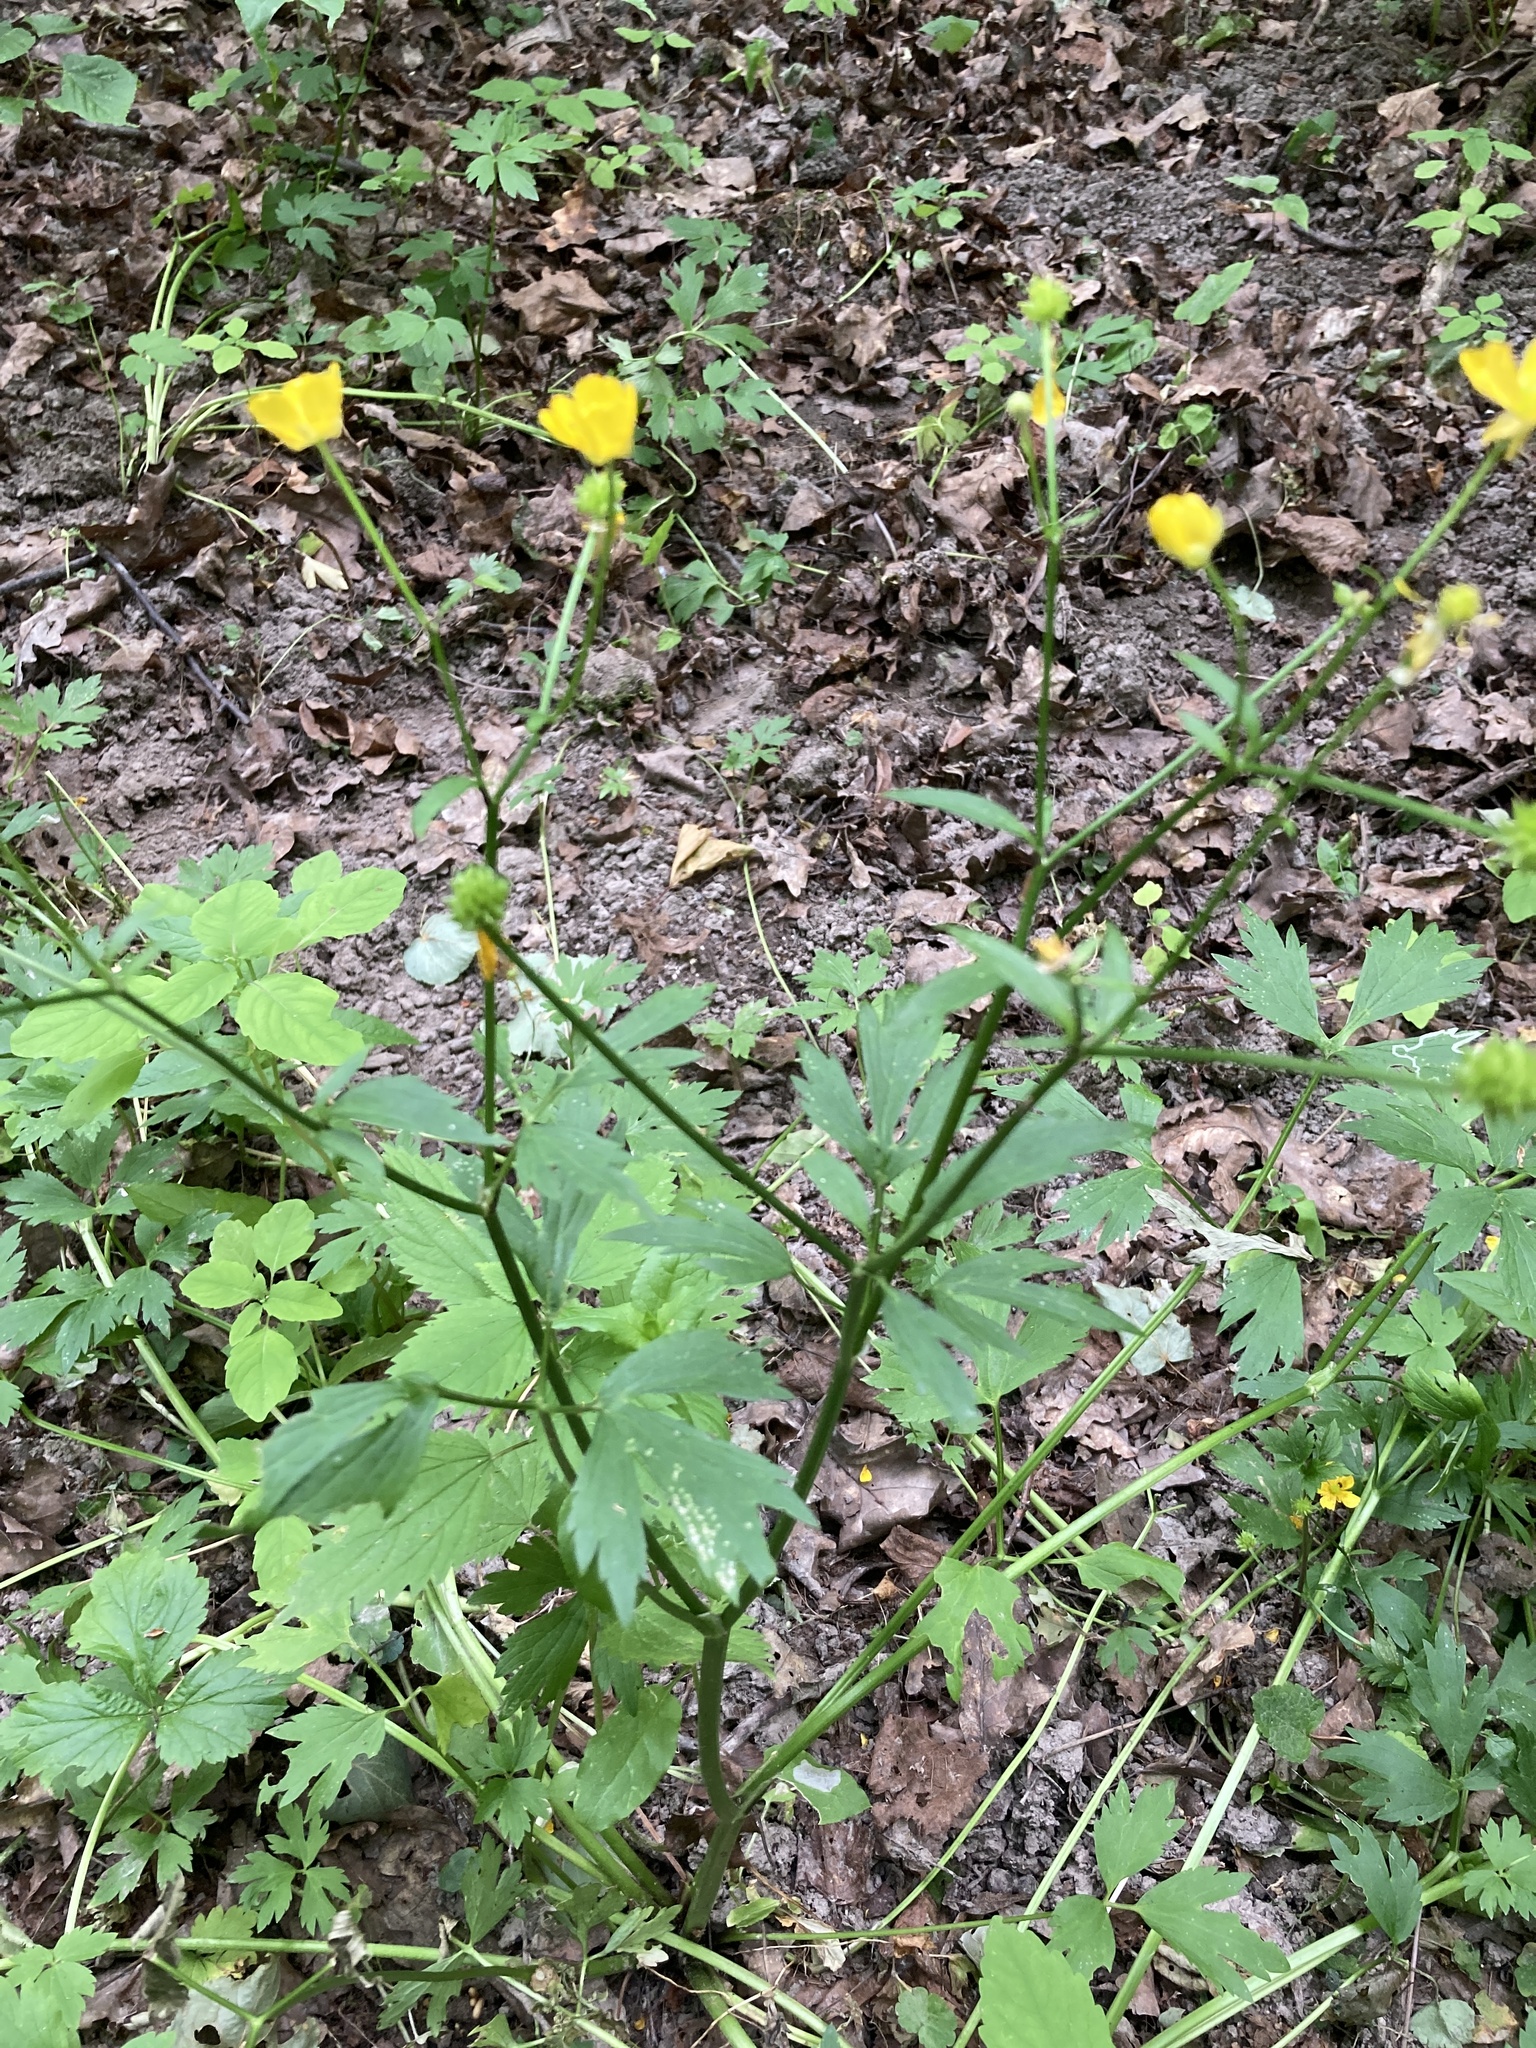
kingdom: Plantae
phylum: Tracheophyta
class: Magnoliopsida
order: Ranunculales
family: Ranunculaceae
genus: Ranunculus
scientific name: Ranunculus repens
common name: Creeping buttercup
